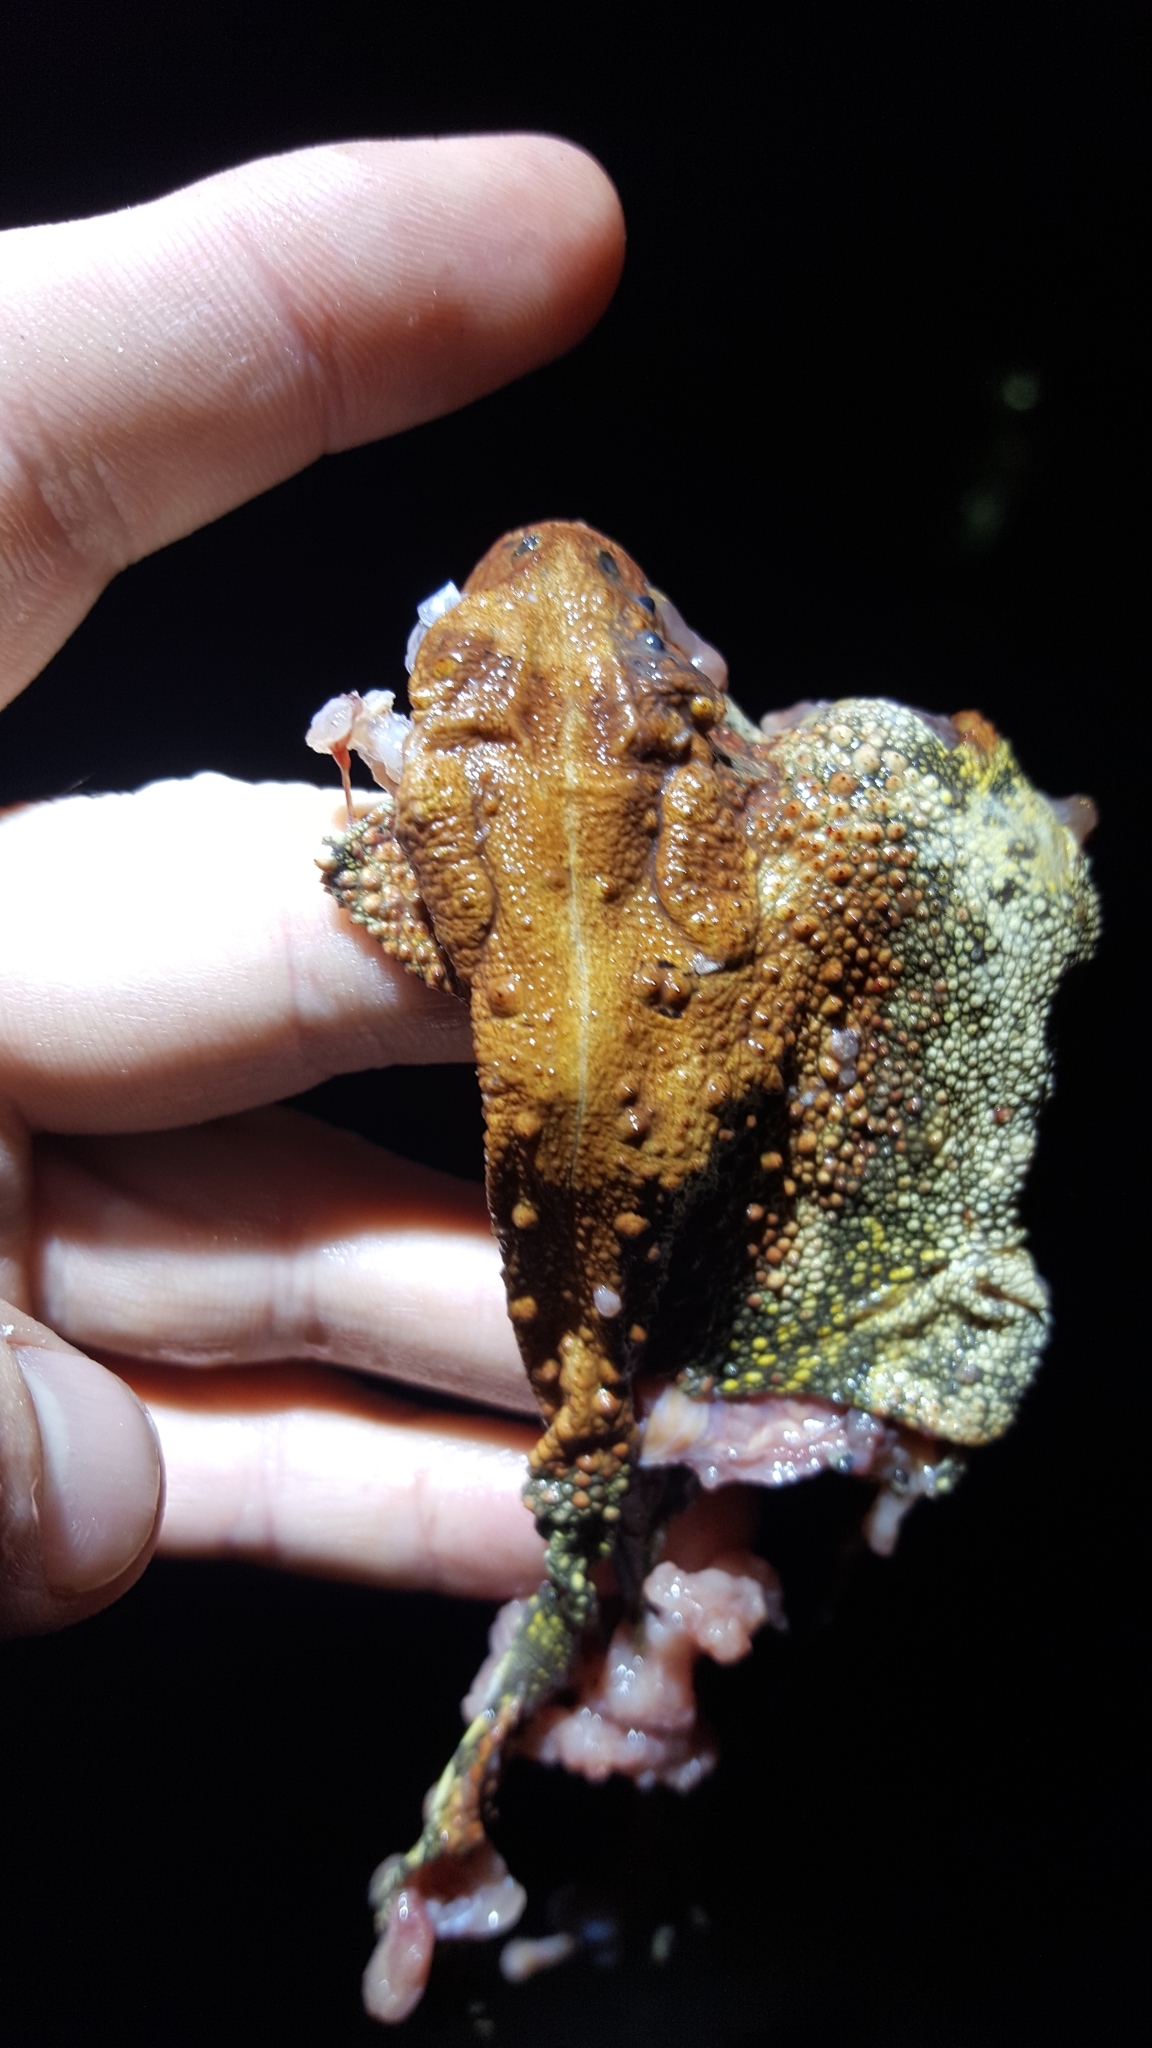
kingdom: Animalia
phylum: Chordata
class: Amphibia
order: Anura
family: Bufonidae
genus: Anaxyrus
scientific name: Anaxyrus americanus
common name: American toad
